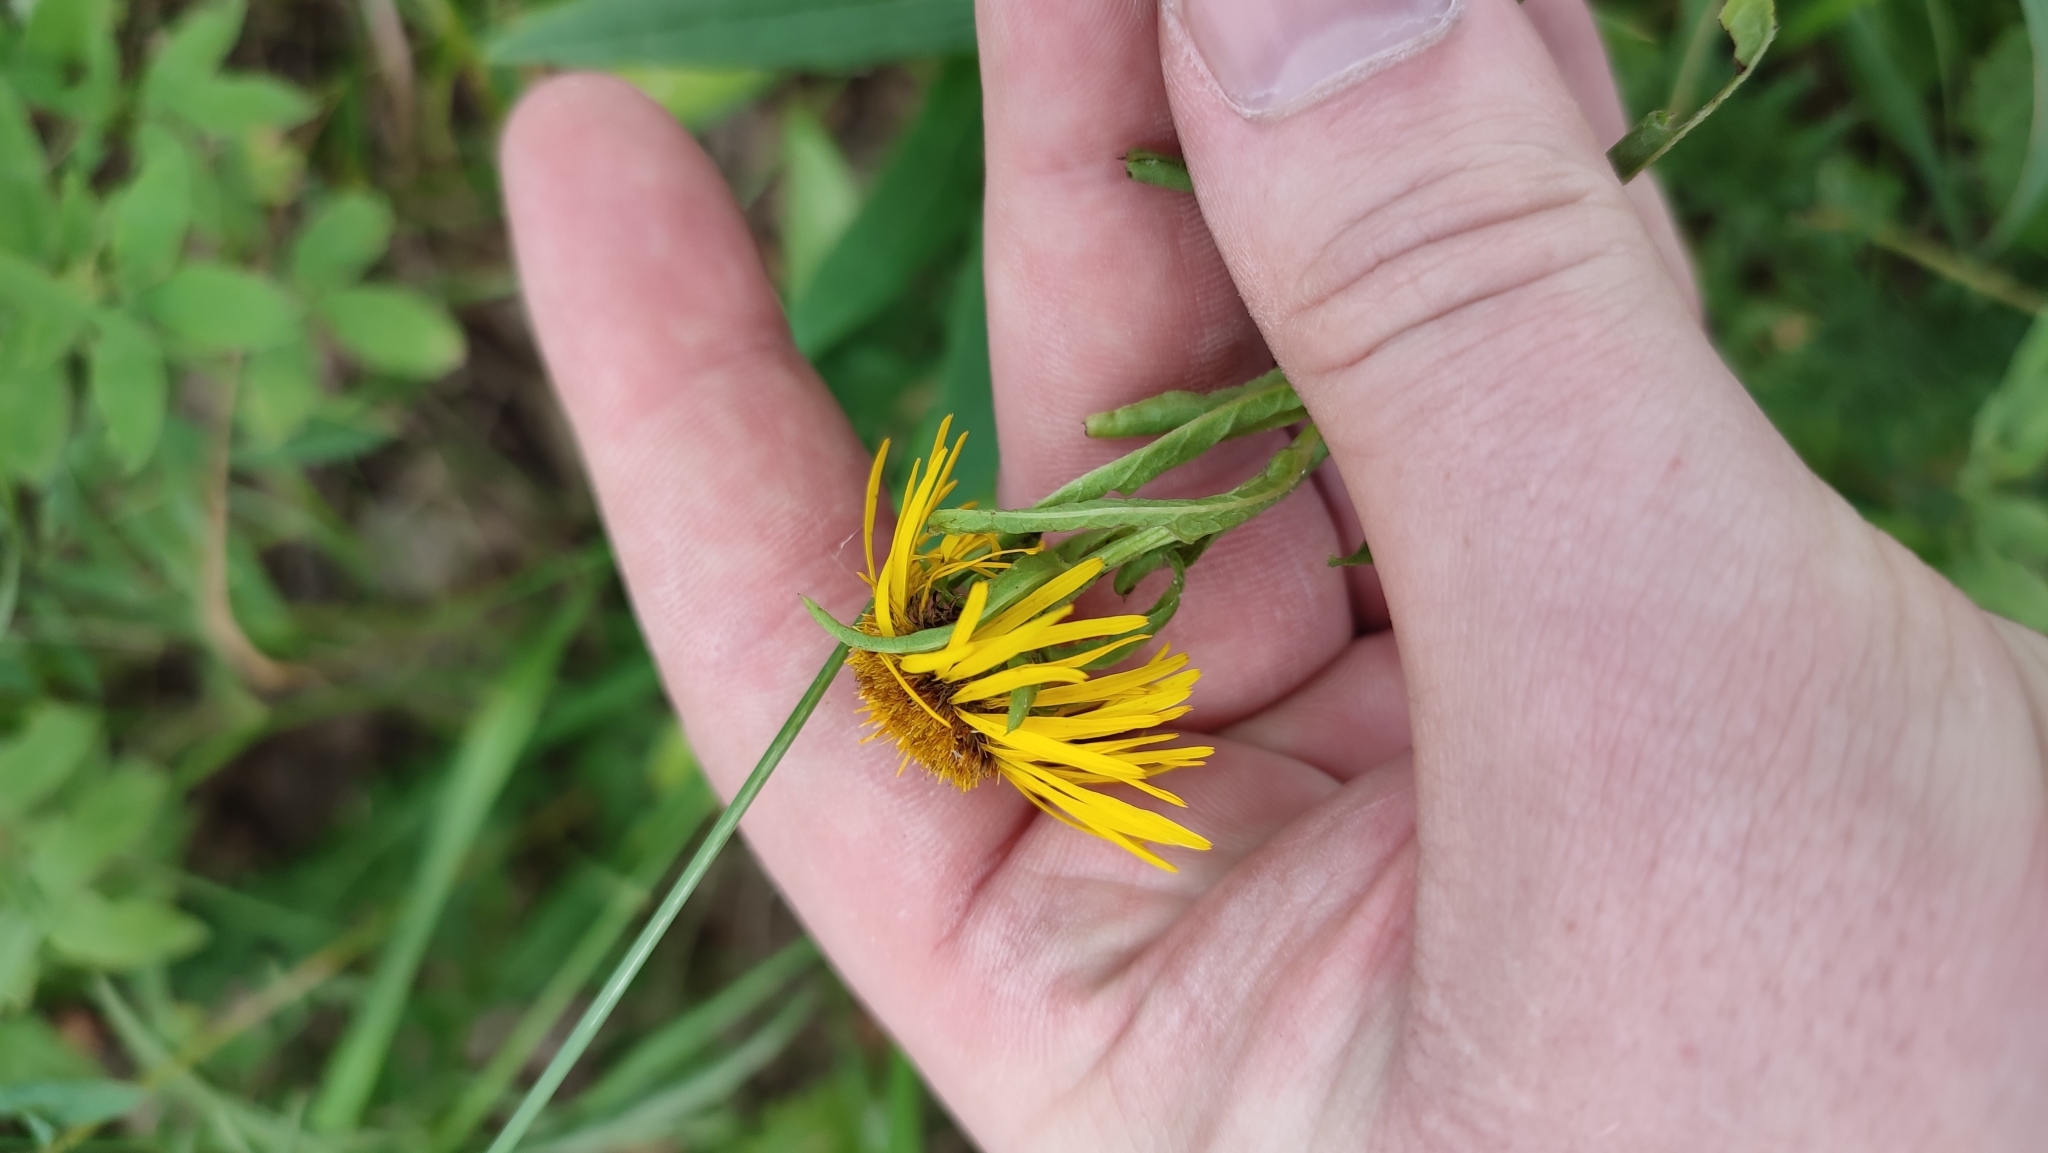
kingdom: Plantae
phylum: Tracheophyta
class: Magnoliopsida
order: Asterales
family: Asteraceae
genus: Pentanema
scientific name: Pentanema salicinum
